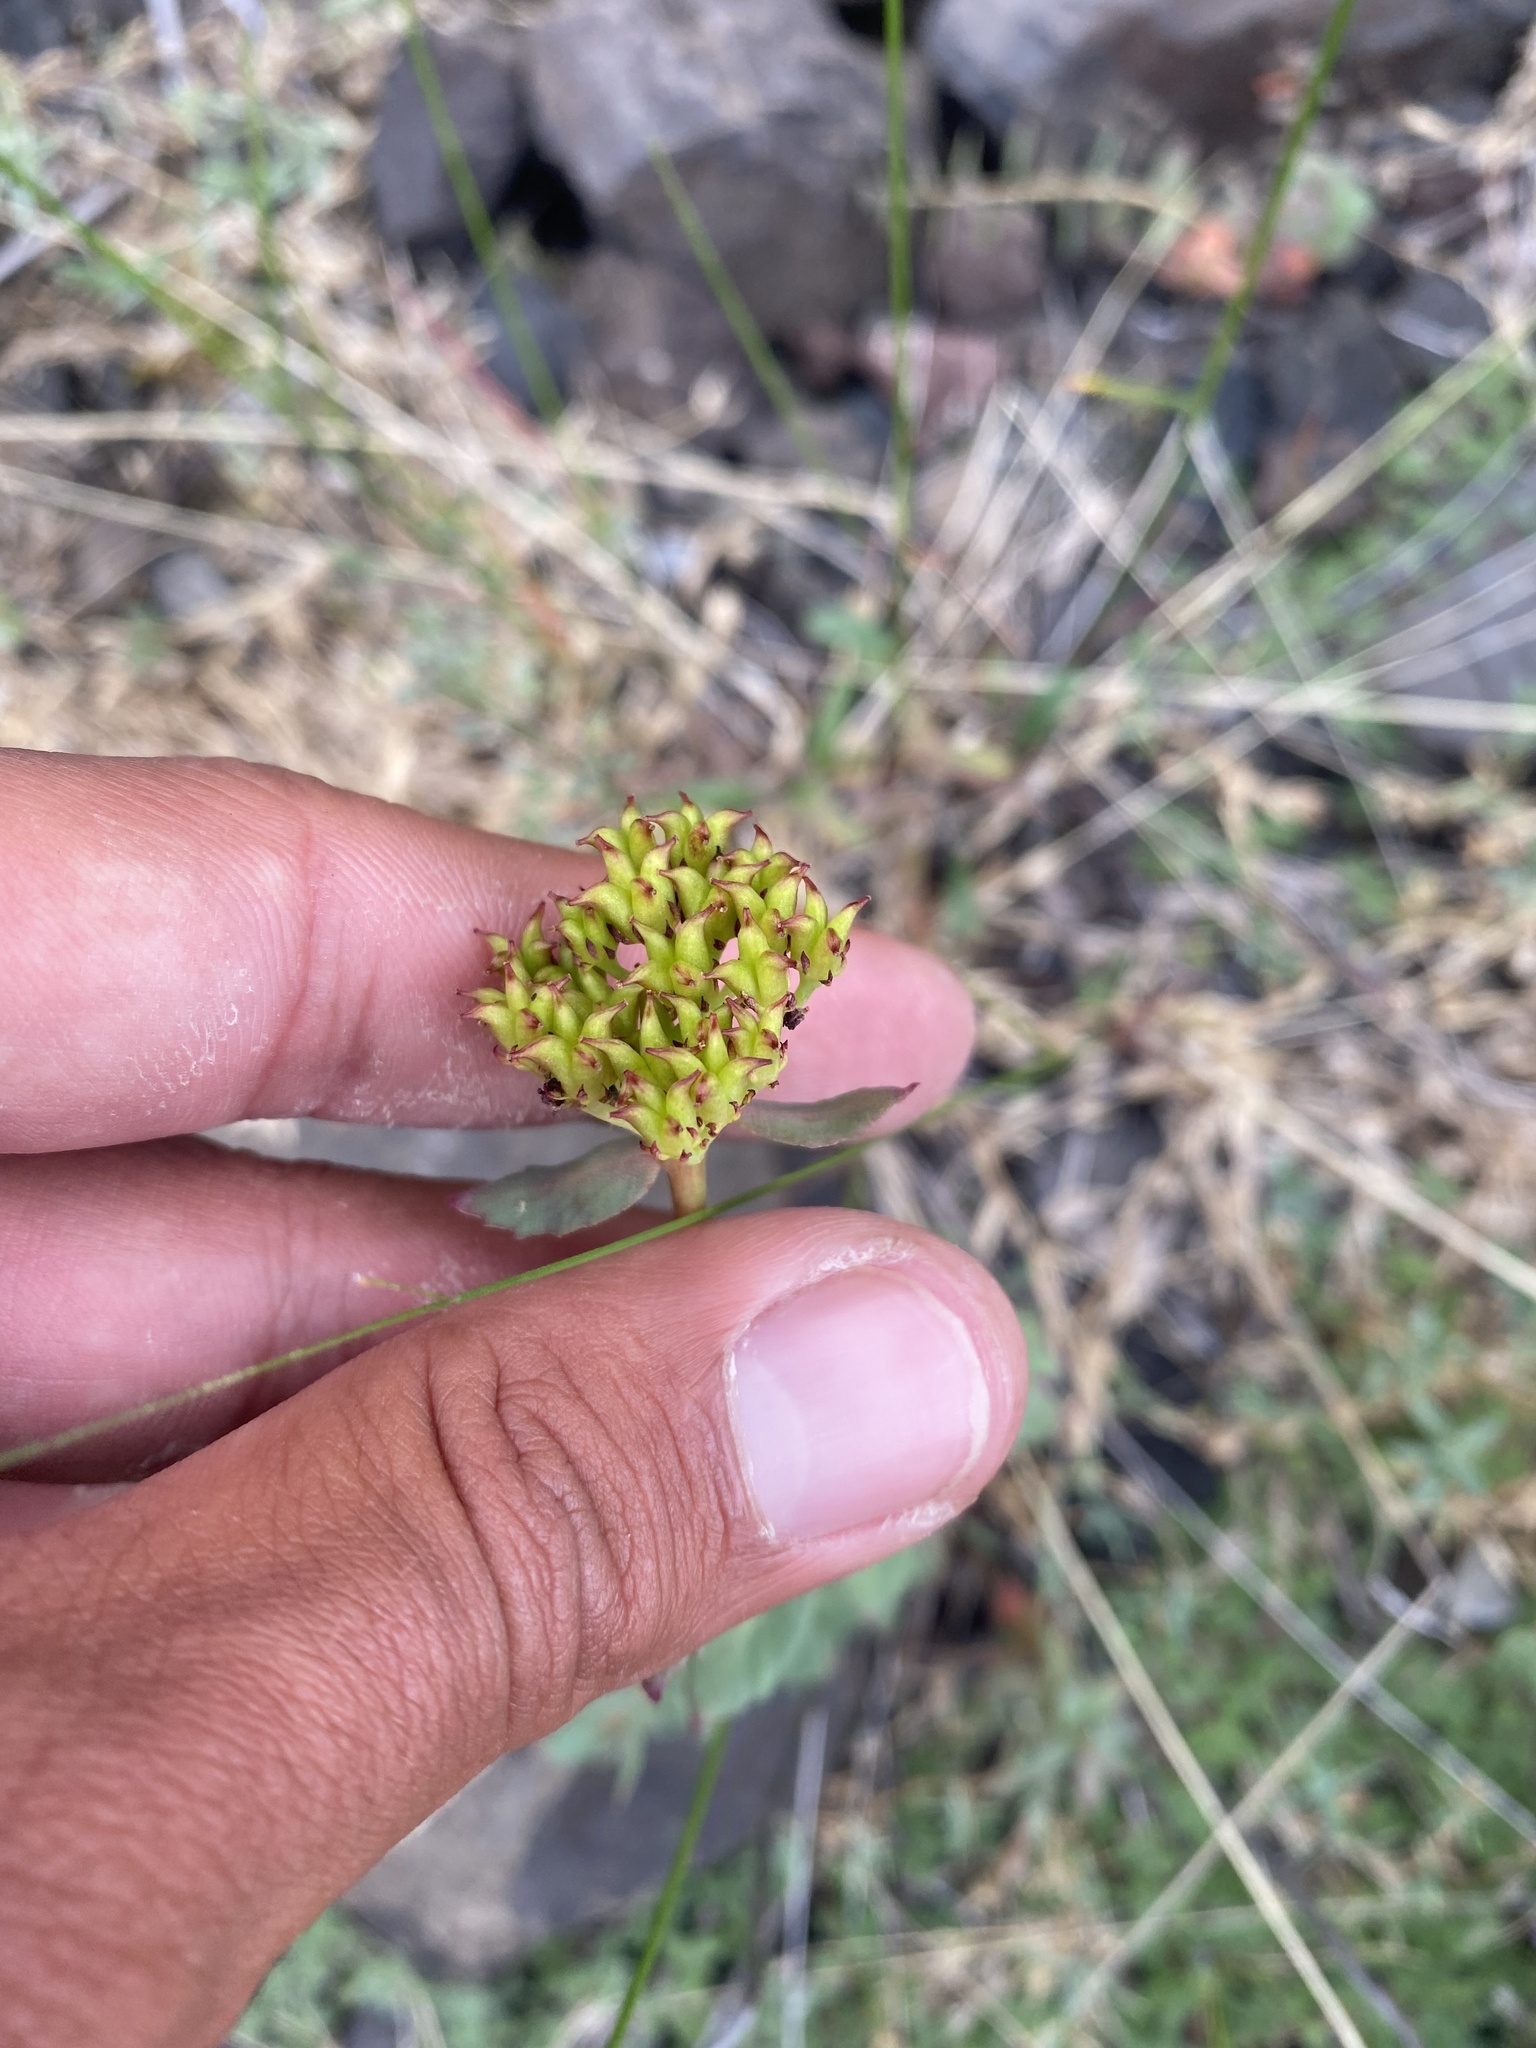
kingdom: Plantae
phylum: Tracheophyta
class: Magnoliopsida
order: Saxifragales
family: Crassulaceae
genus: Rhodiola
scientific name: Rhodiola rosea
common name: Roseroot
